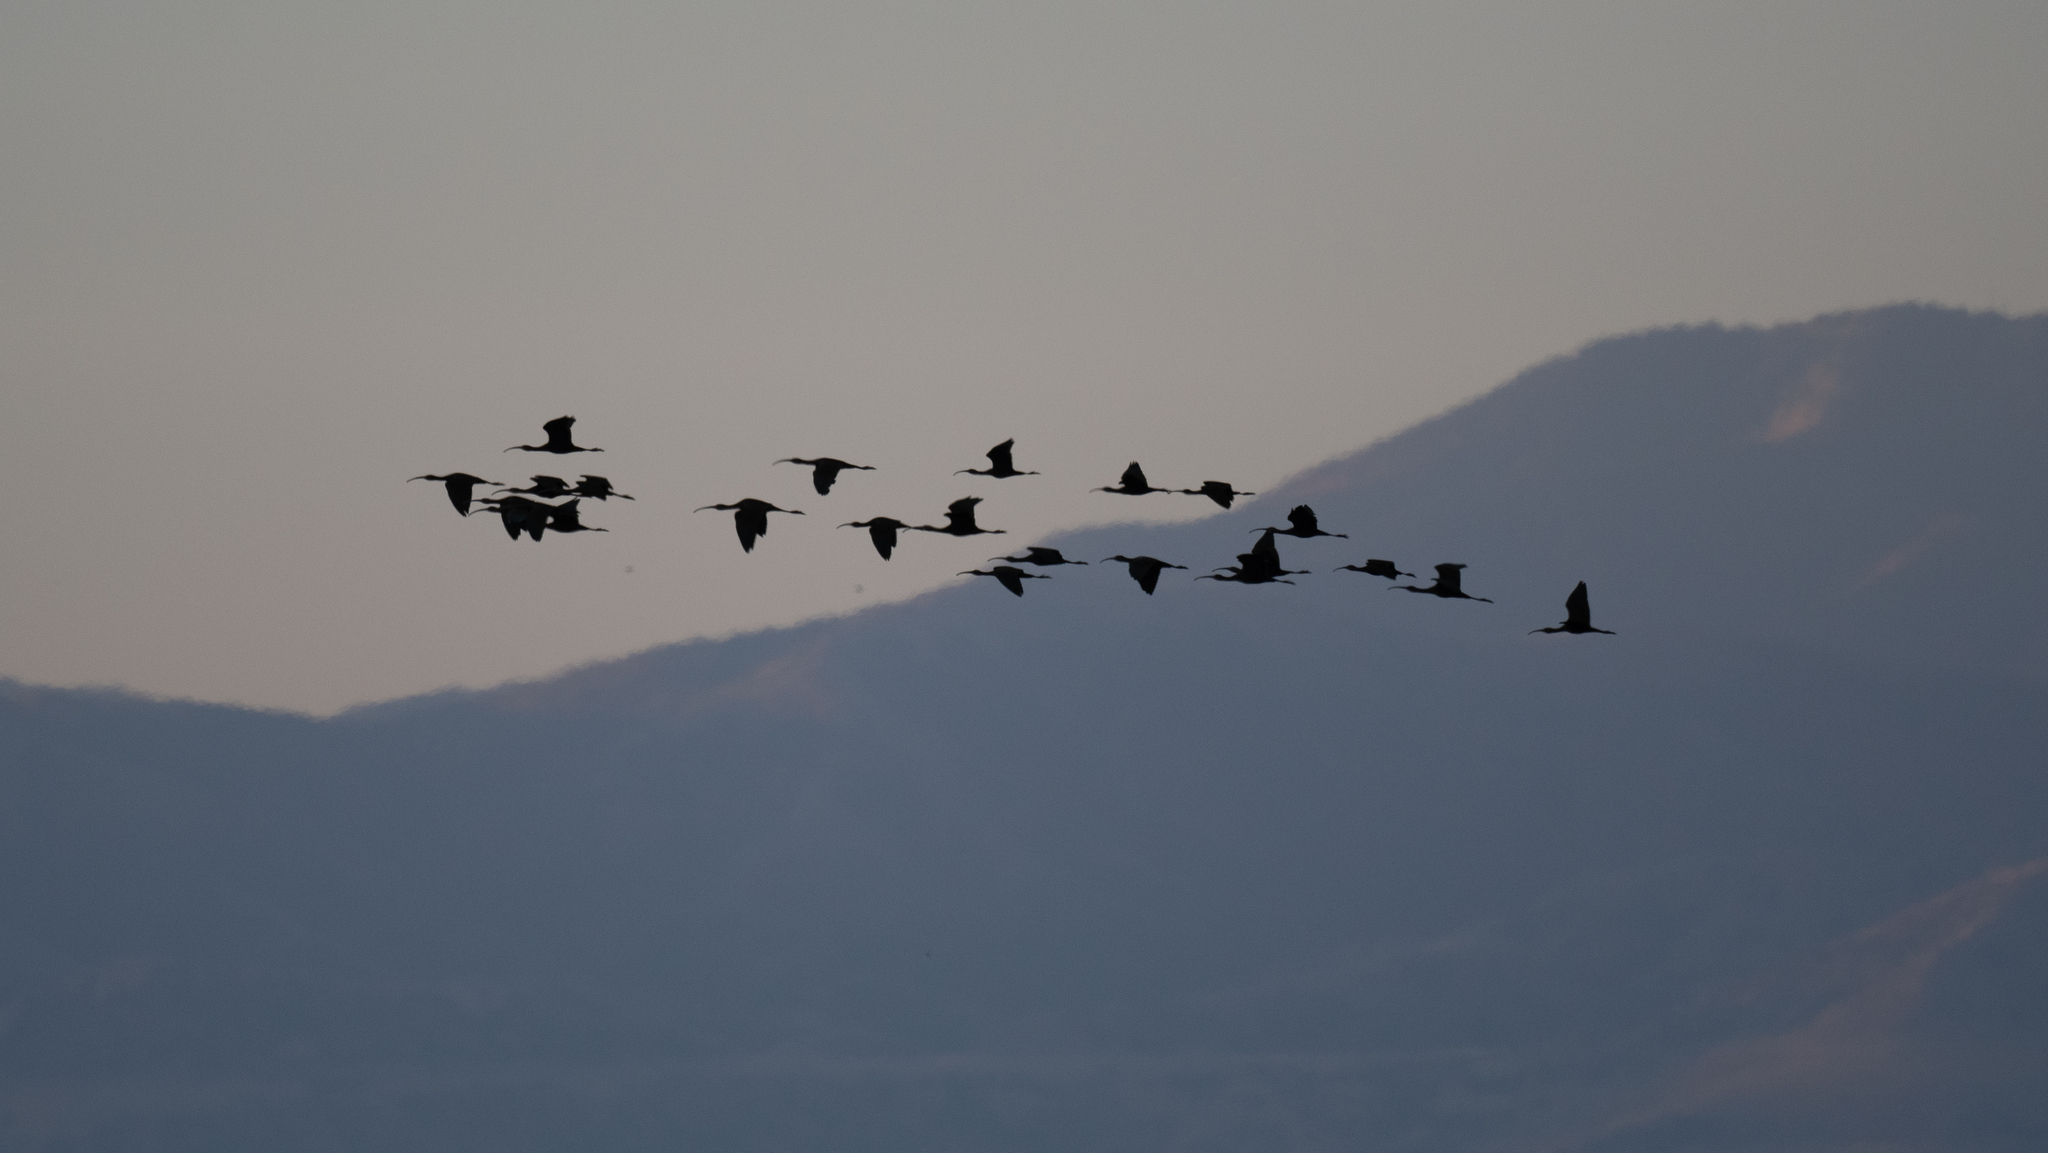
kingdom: Animalia
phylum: Chordata
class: Aves
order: Pelecaniformes
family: Threskiornithidae
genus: Plegadis
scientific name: Plegadis chihi
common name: White-faced ibis
